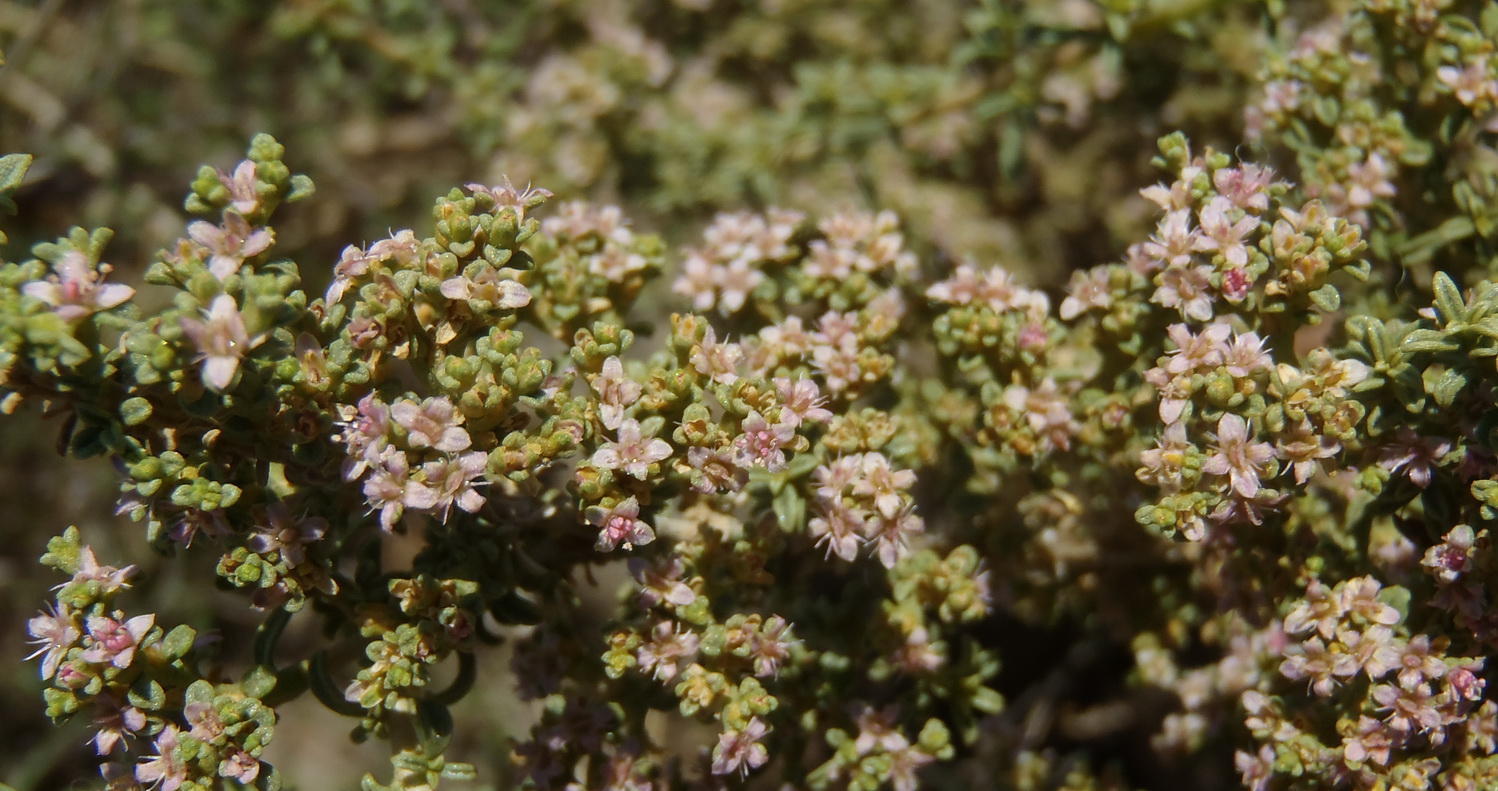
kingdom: Plantae
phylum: Tracheophyta
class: Magnoliopsida
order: Caryophyllales
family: Aizoaceae
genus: Aizoon
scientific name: Aizoon cymosum
